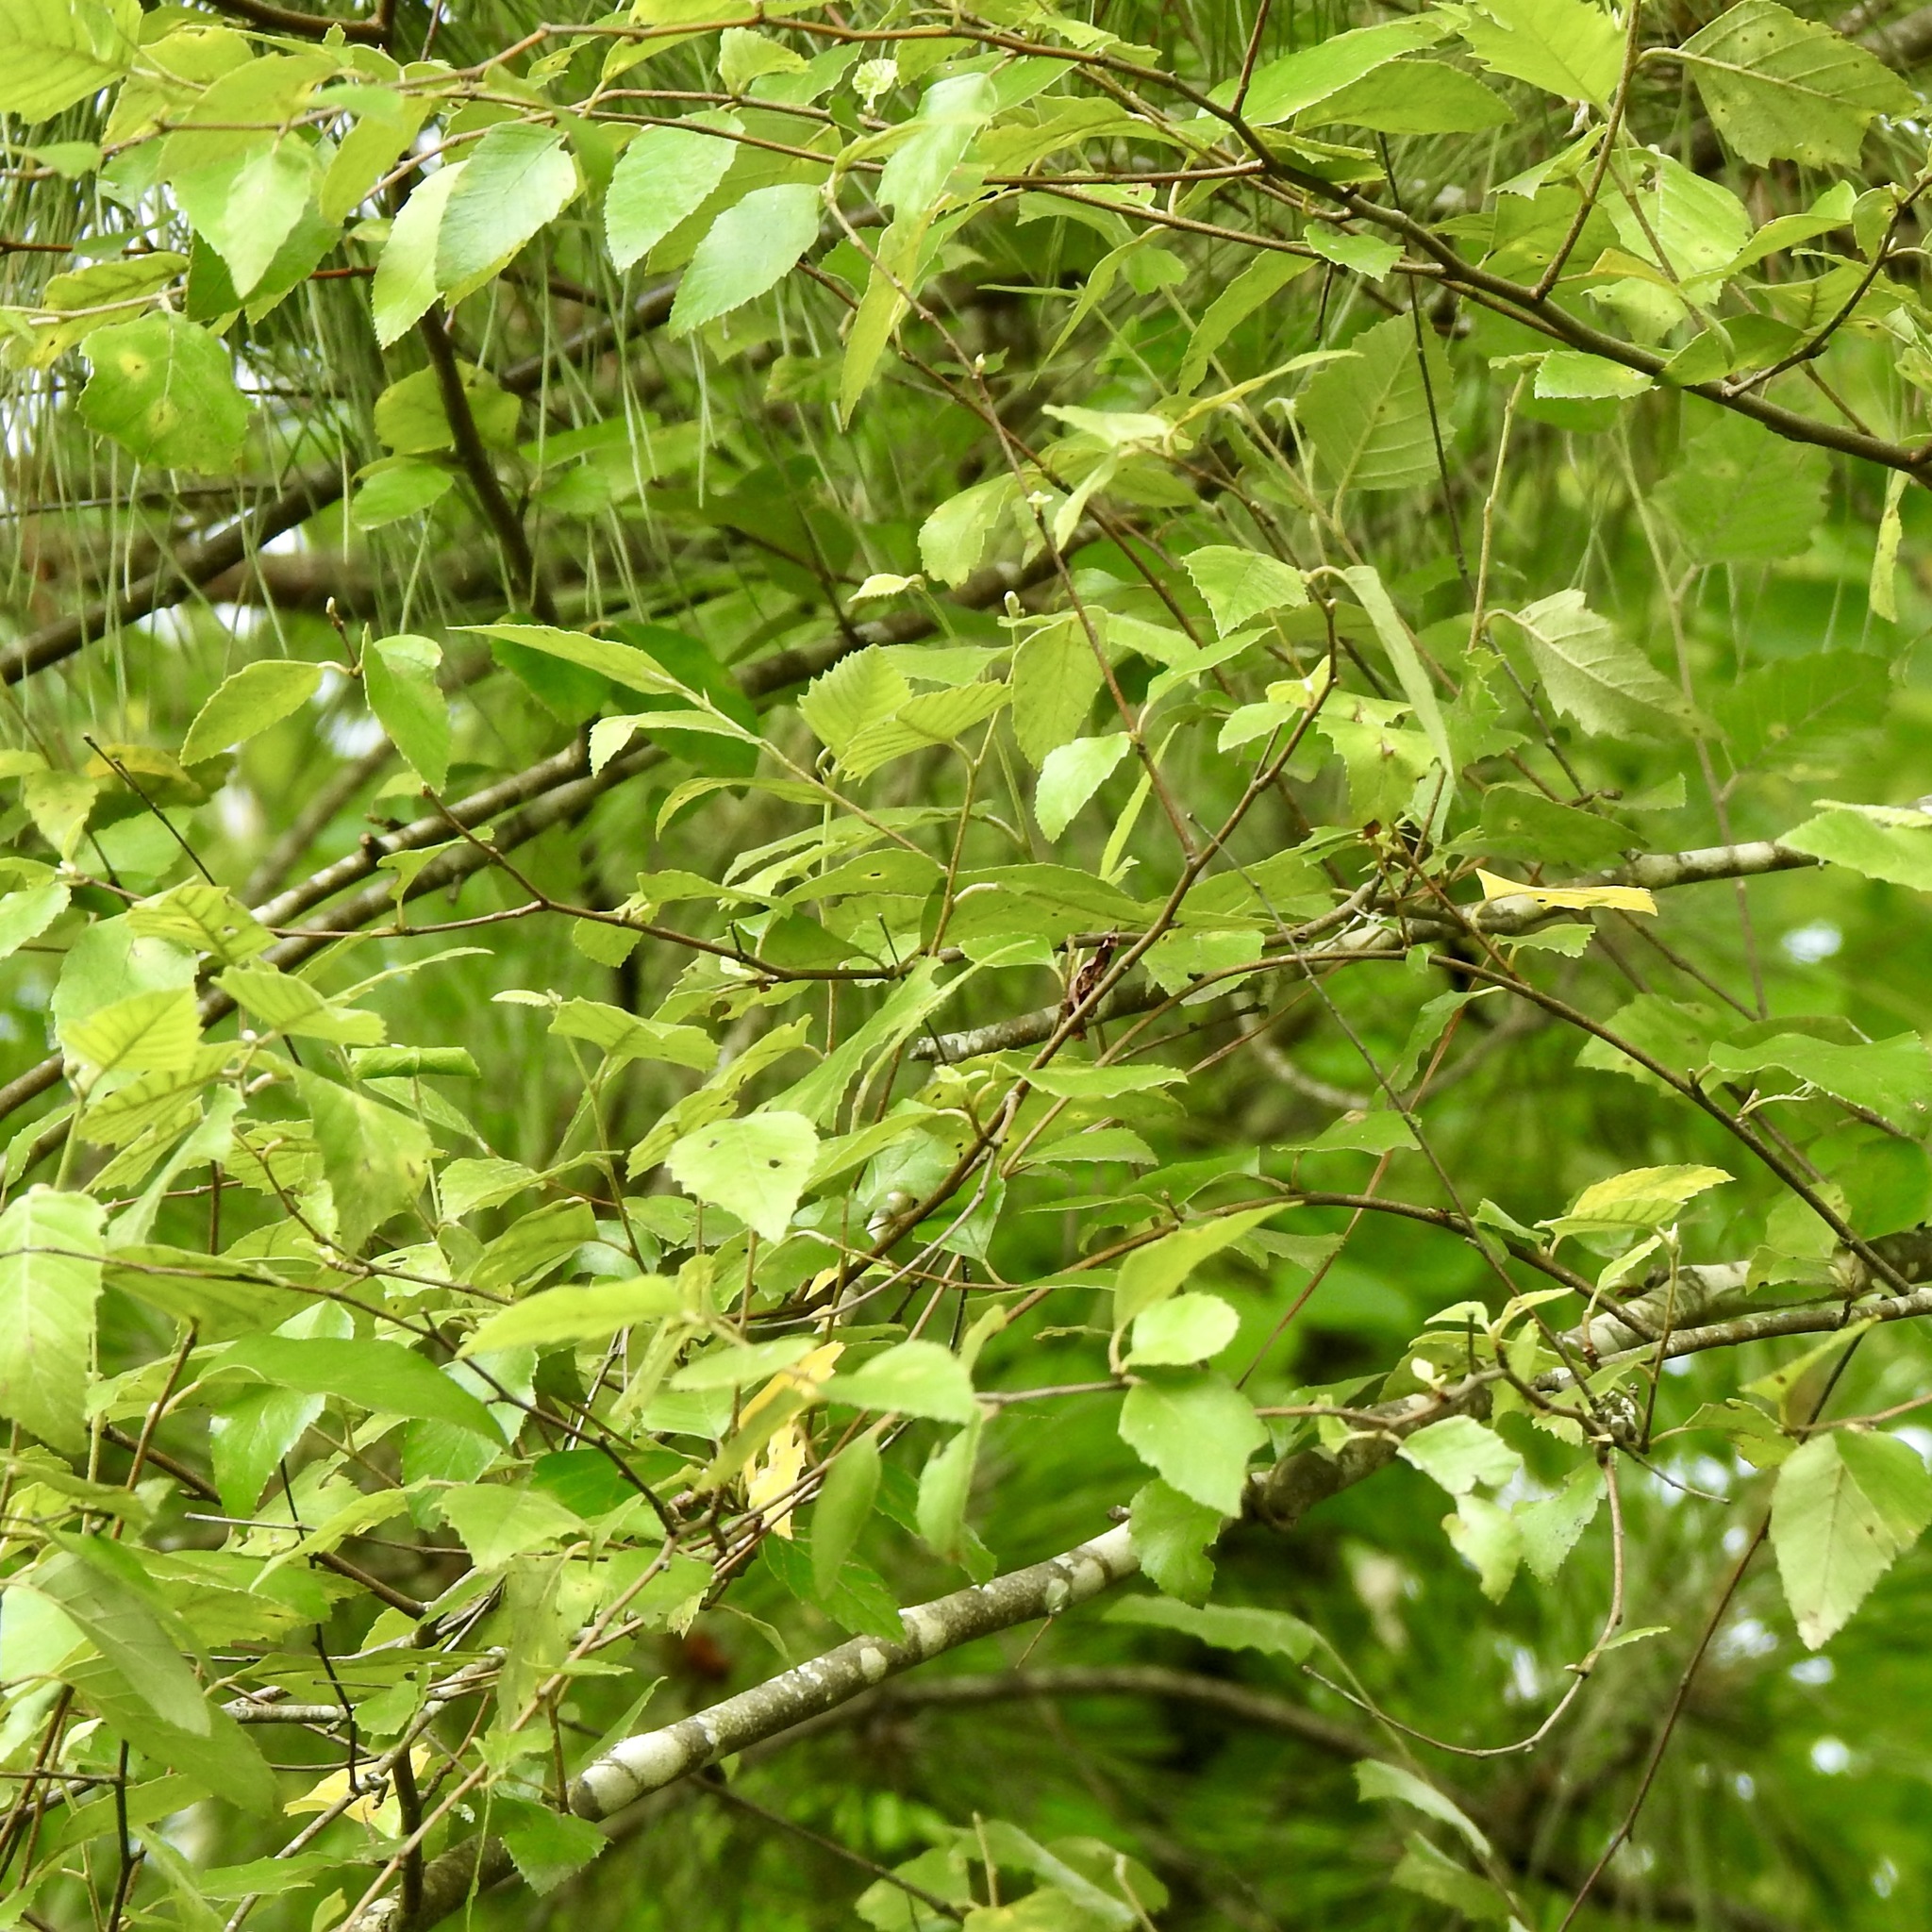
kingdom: Plantae
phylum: Tracheophyta
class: Magnoliopsida
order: Fagales
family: Betulaceae
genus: Betula
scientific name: Betula nigra
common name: Black birch
